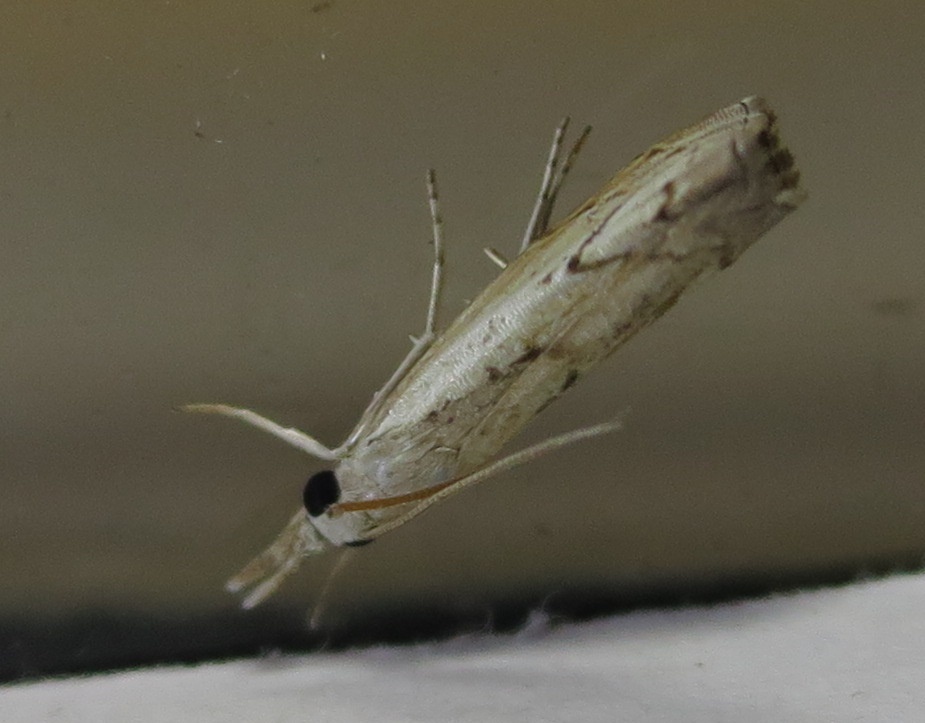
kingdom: Animalia
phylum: Arthropoda
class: Insecta
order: Lepidoptera
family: Crambidae
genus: Culladia
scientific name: Culladia cuneiferellus
